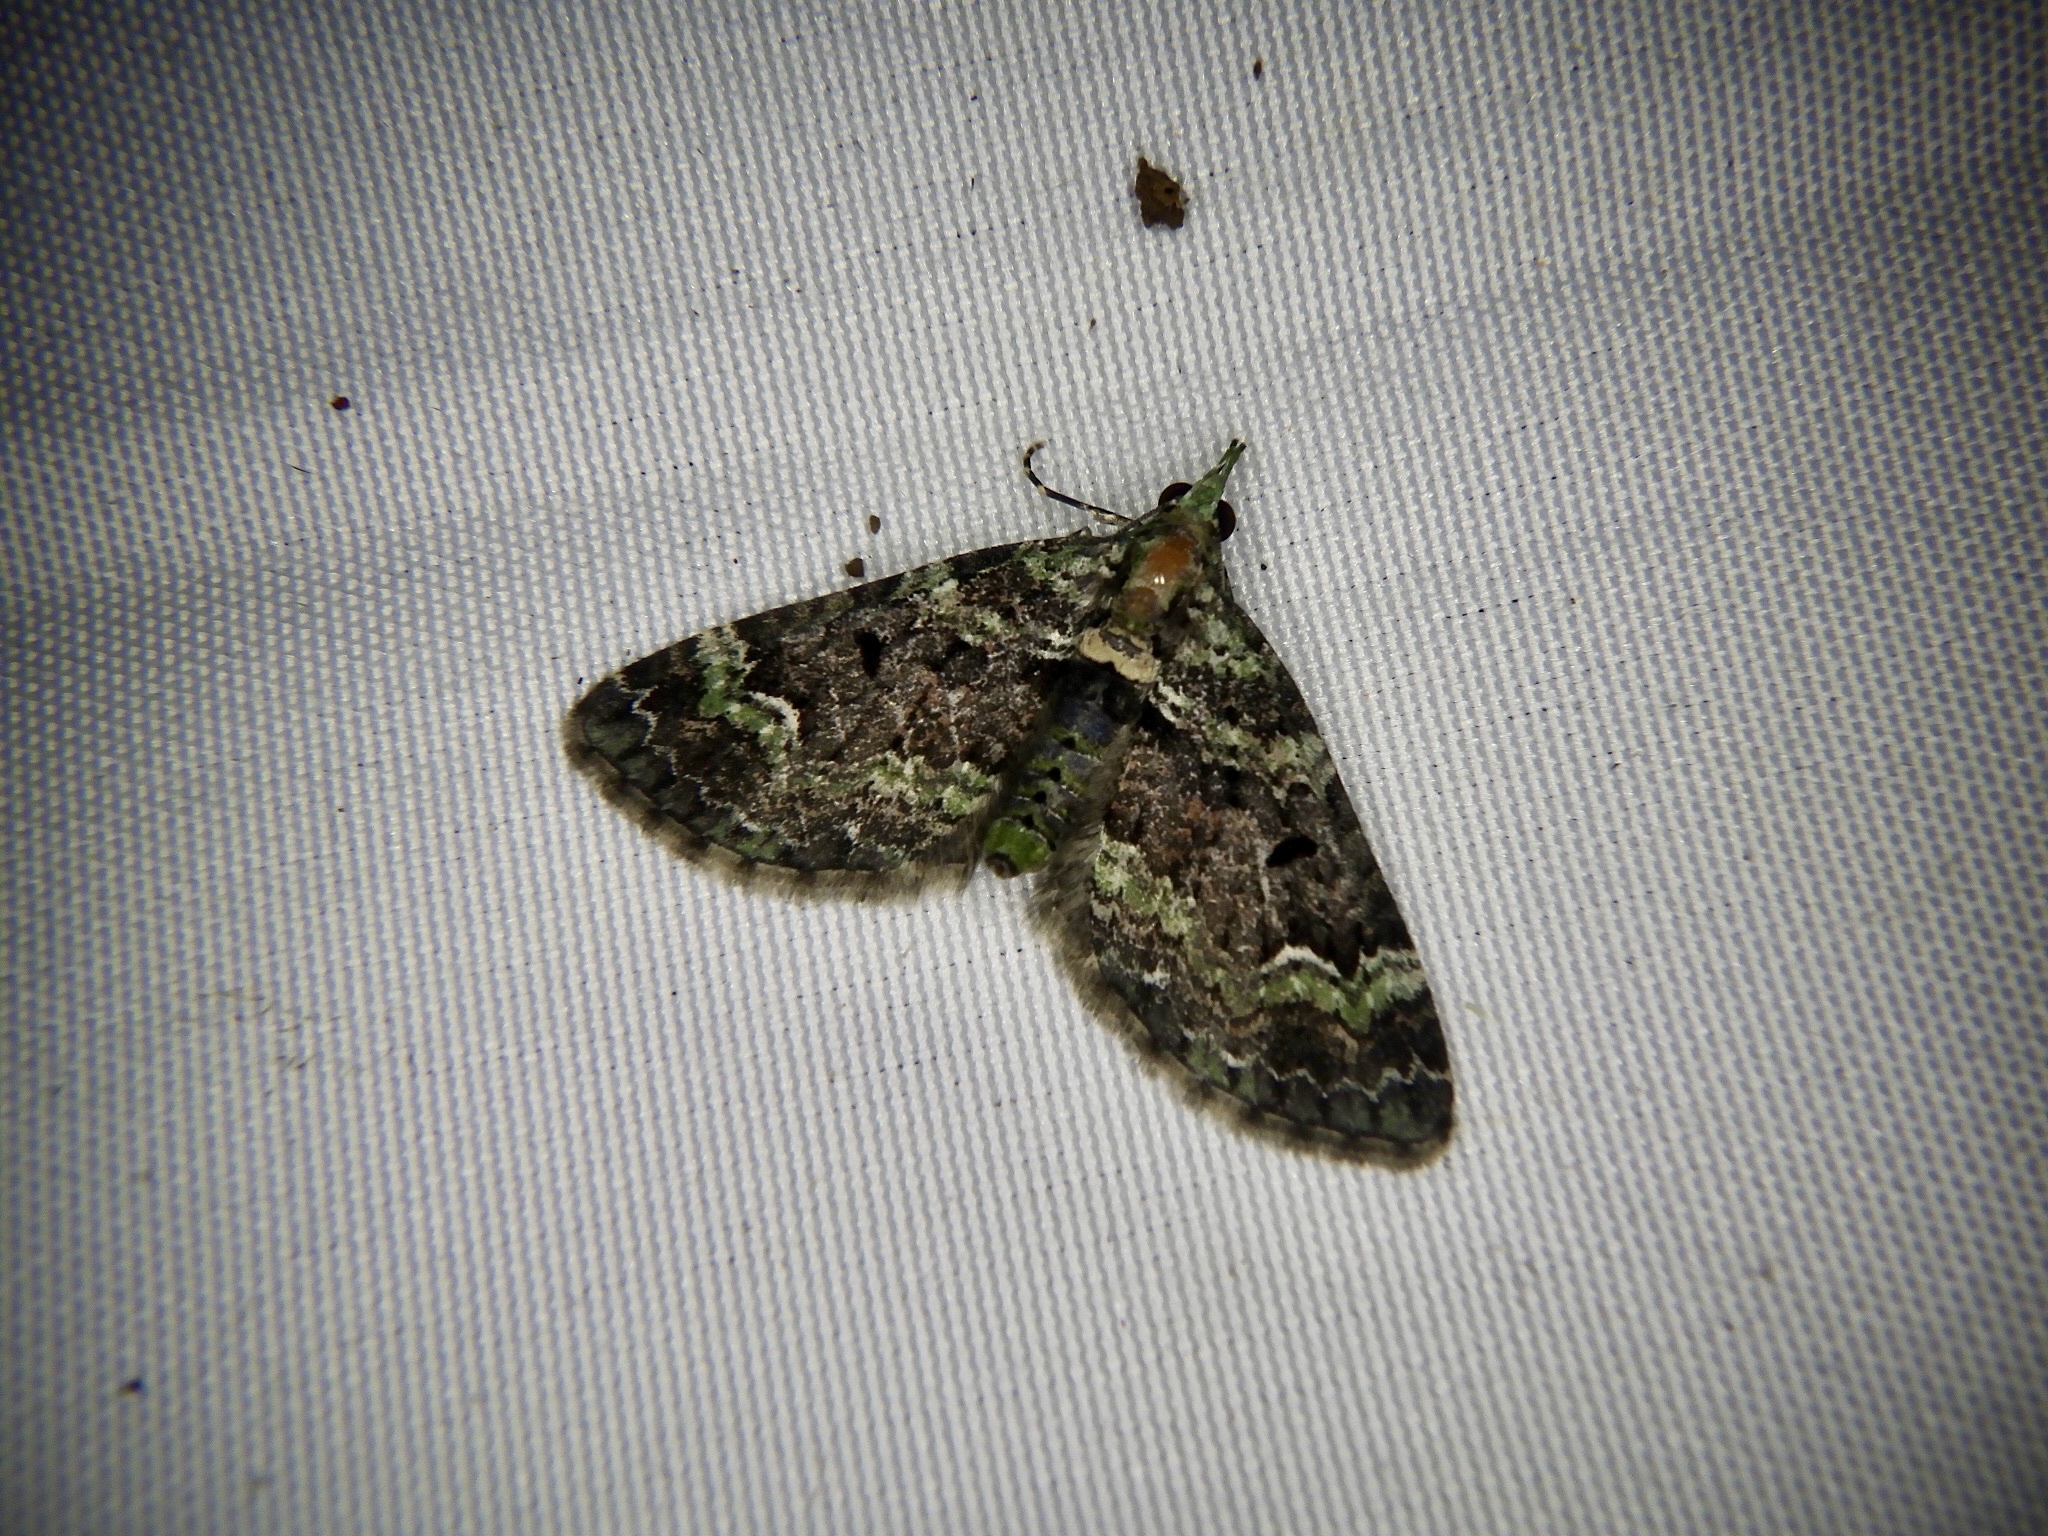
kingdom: Animalia
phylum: Arthropoda
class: Insecta
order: Lepidoptera
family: Geometridae
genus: Chloroclystis
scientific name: Chloroclystis
